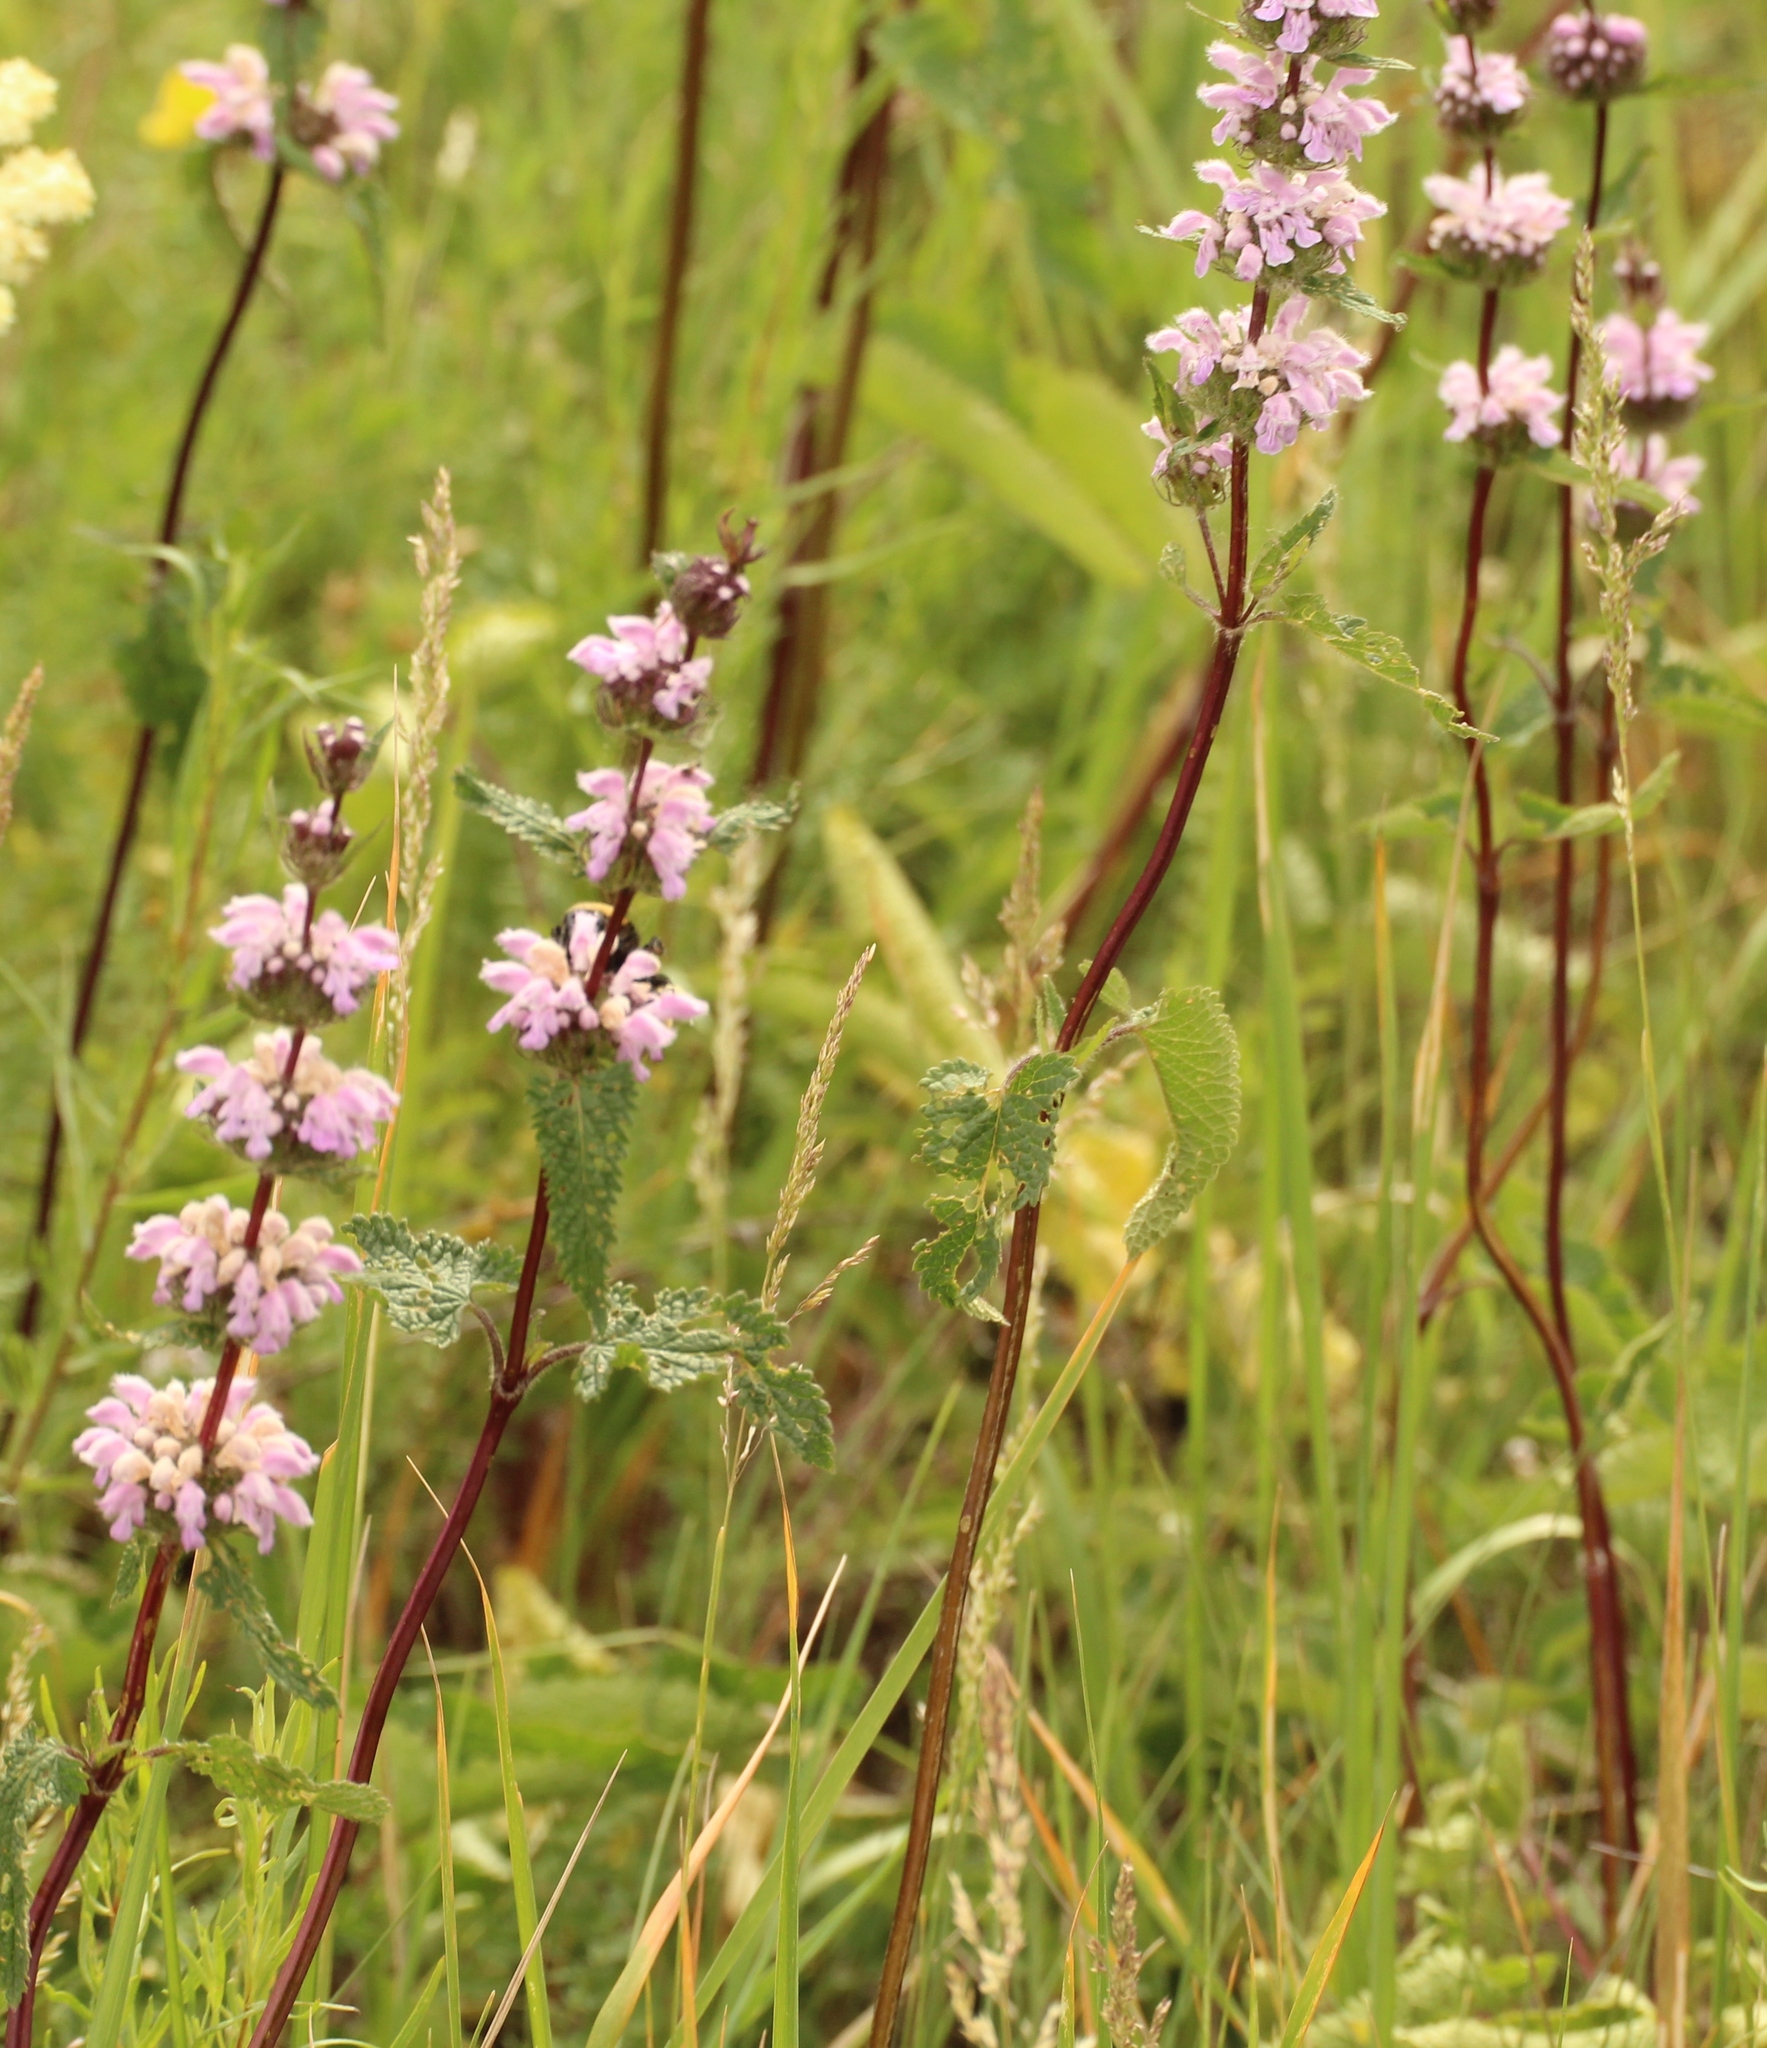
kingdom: Plantae
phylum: Tracheophyta
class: Magnoliopsida
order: Lamiales
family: Lamiaceae
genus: Phlomoides
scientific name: Phlomoides tuberosa
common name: Tuberous jerusalem sage
